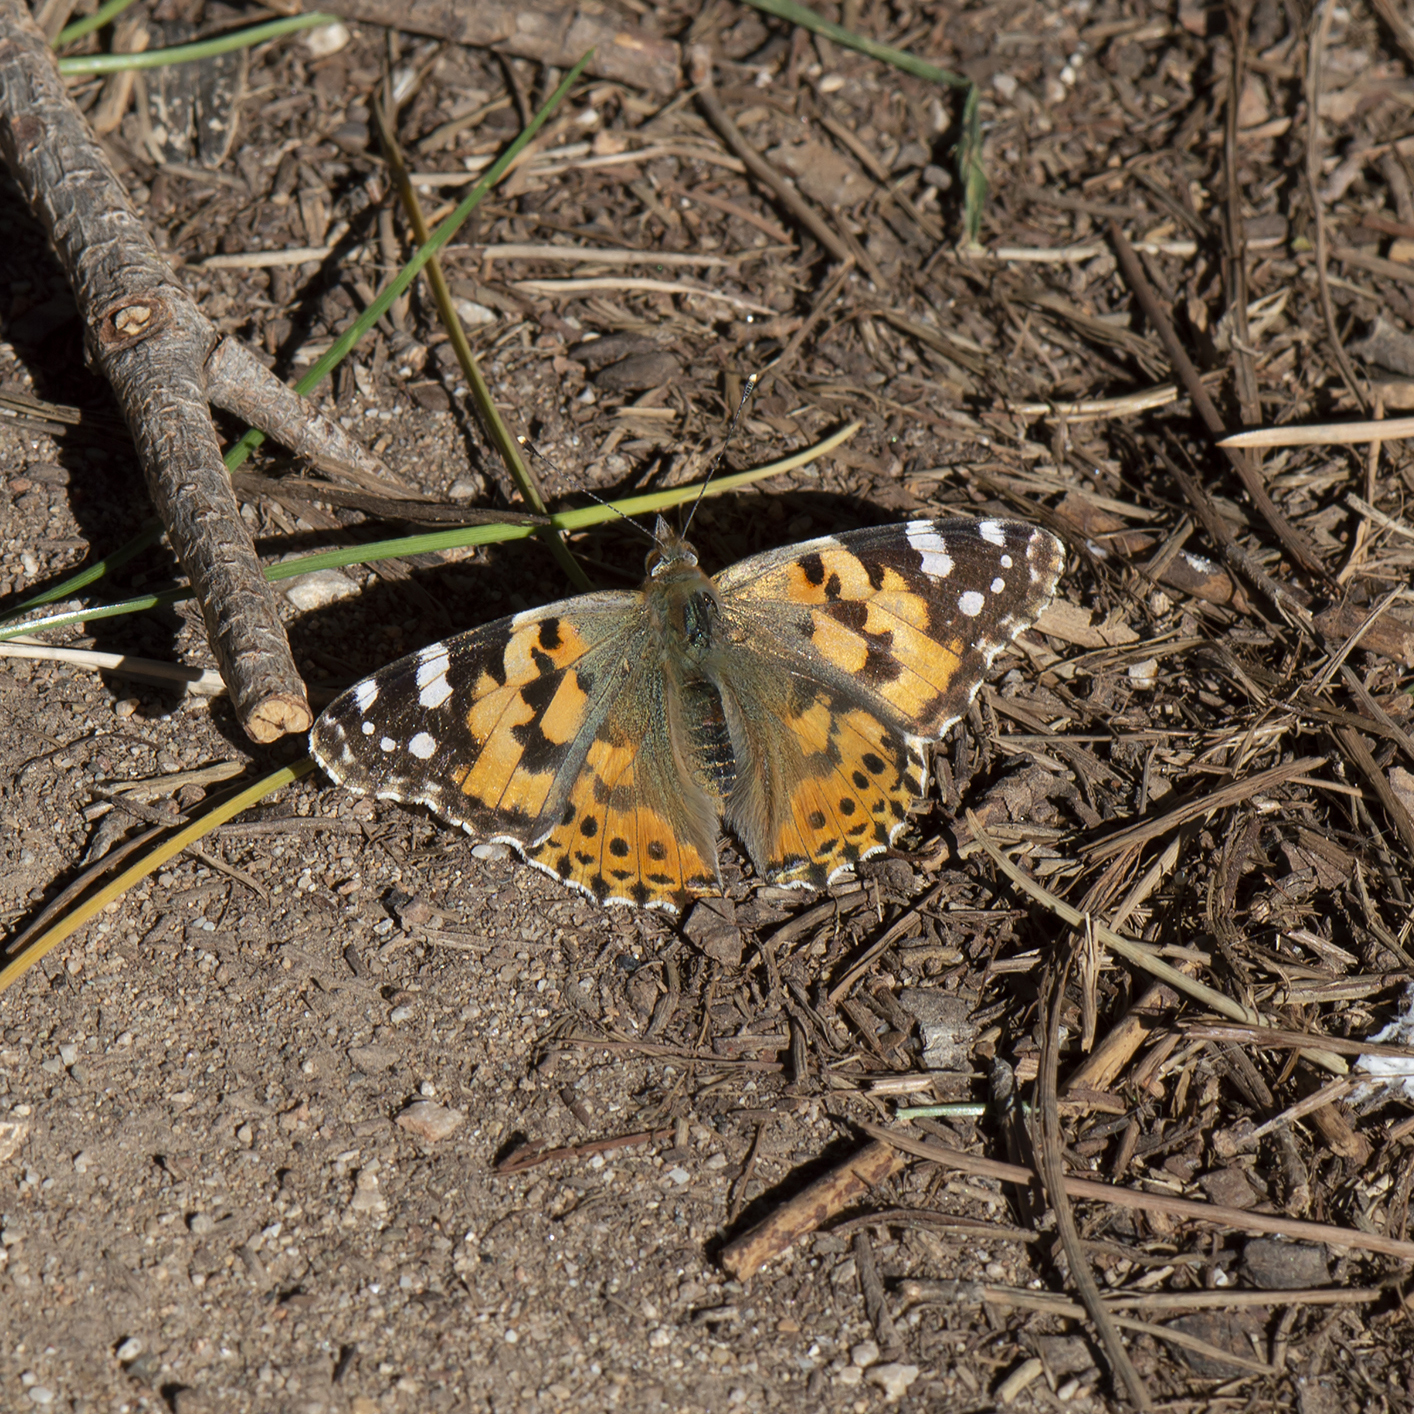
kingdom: Animalia
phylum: Arthropoda
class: Insecta
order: Lepidoptera
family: Nymphalidae
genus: Vanessa
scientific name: Vanessa cardui
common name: Painted lady
